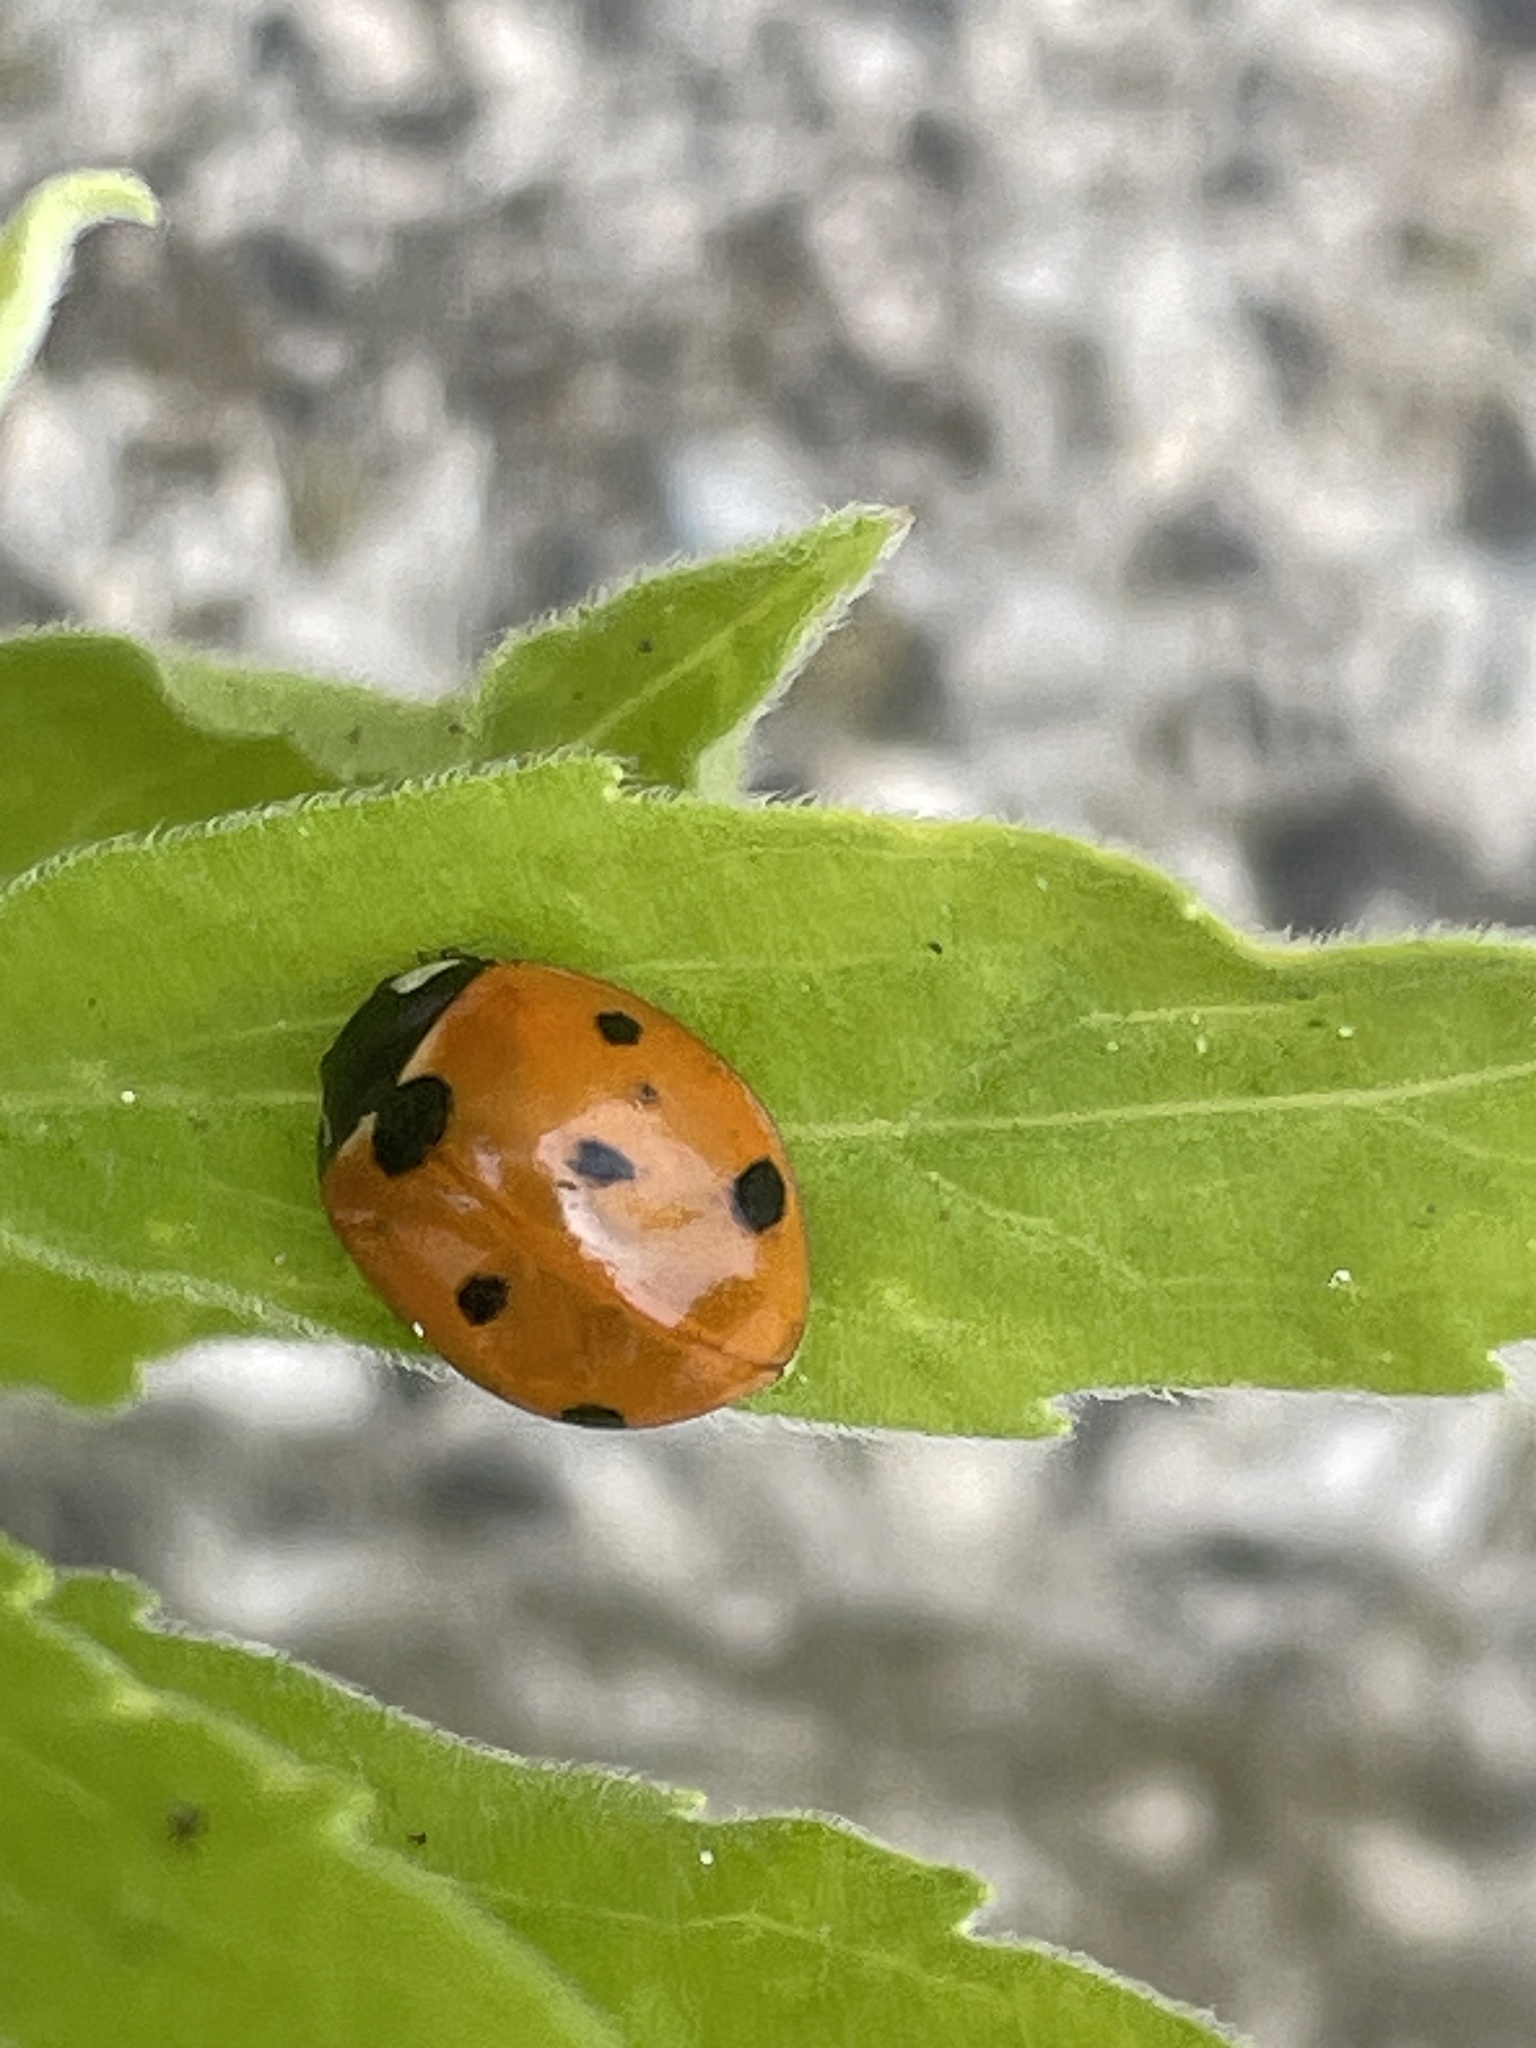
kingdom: Animalia
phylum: Arthropoda
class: Insecta
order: Coleoptera
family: Coccinellidae
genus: Coccinella
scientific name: Coccinella septempunctata
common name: Sevenspotted lady beetle
